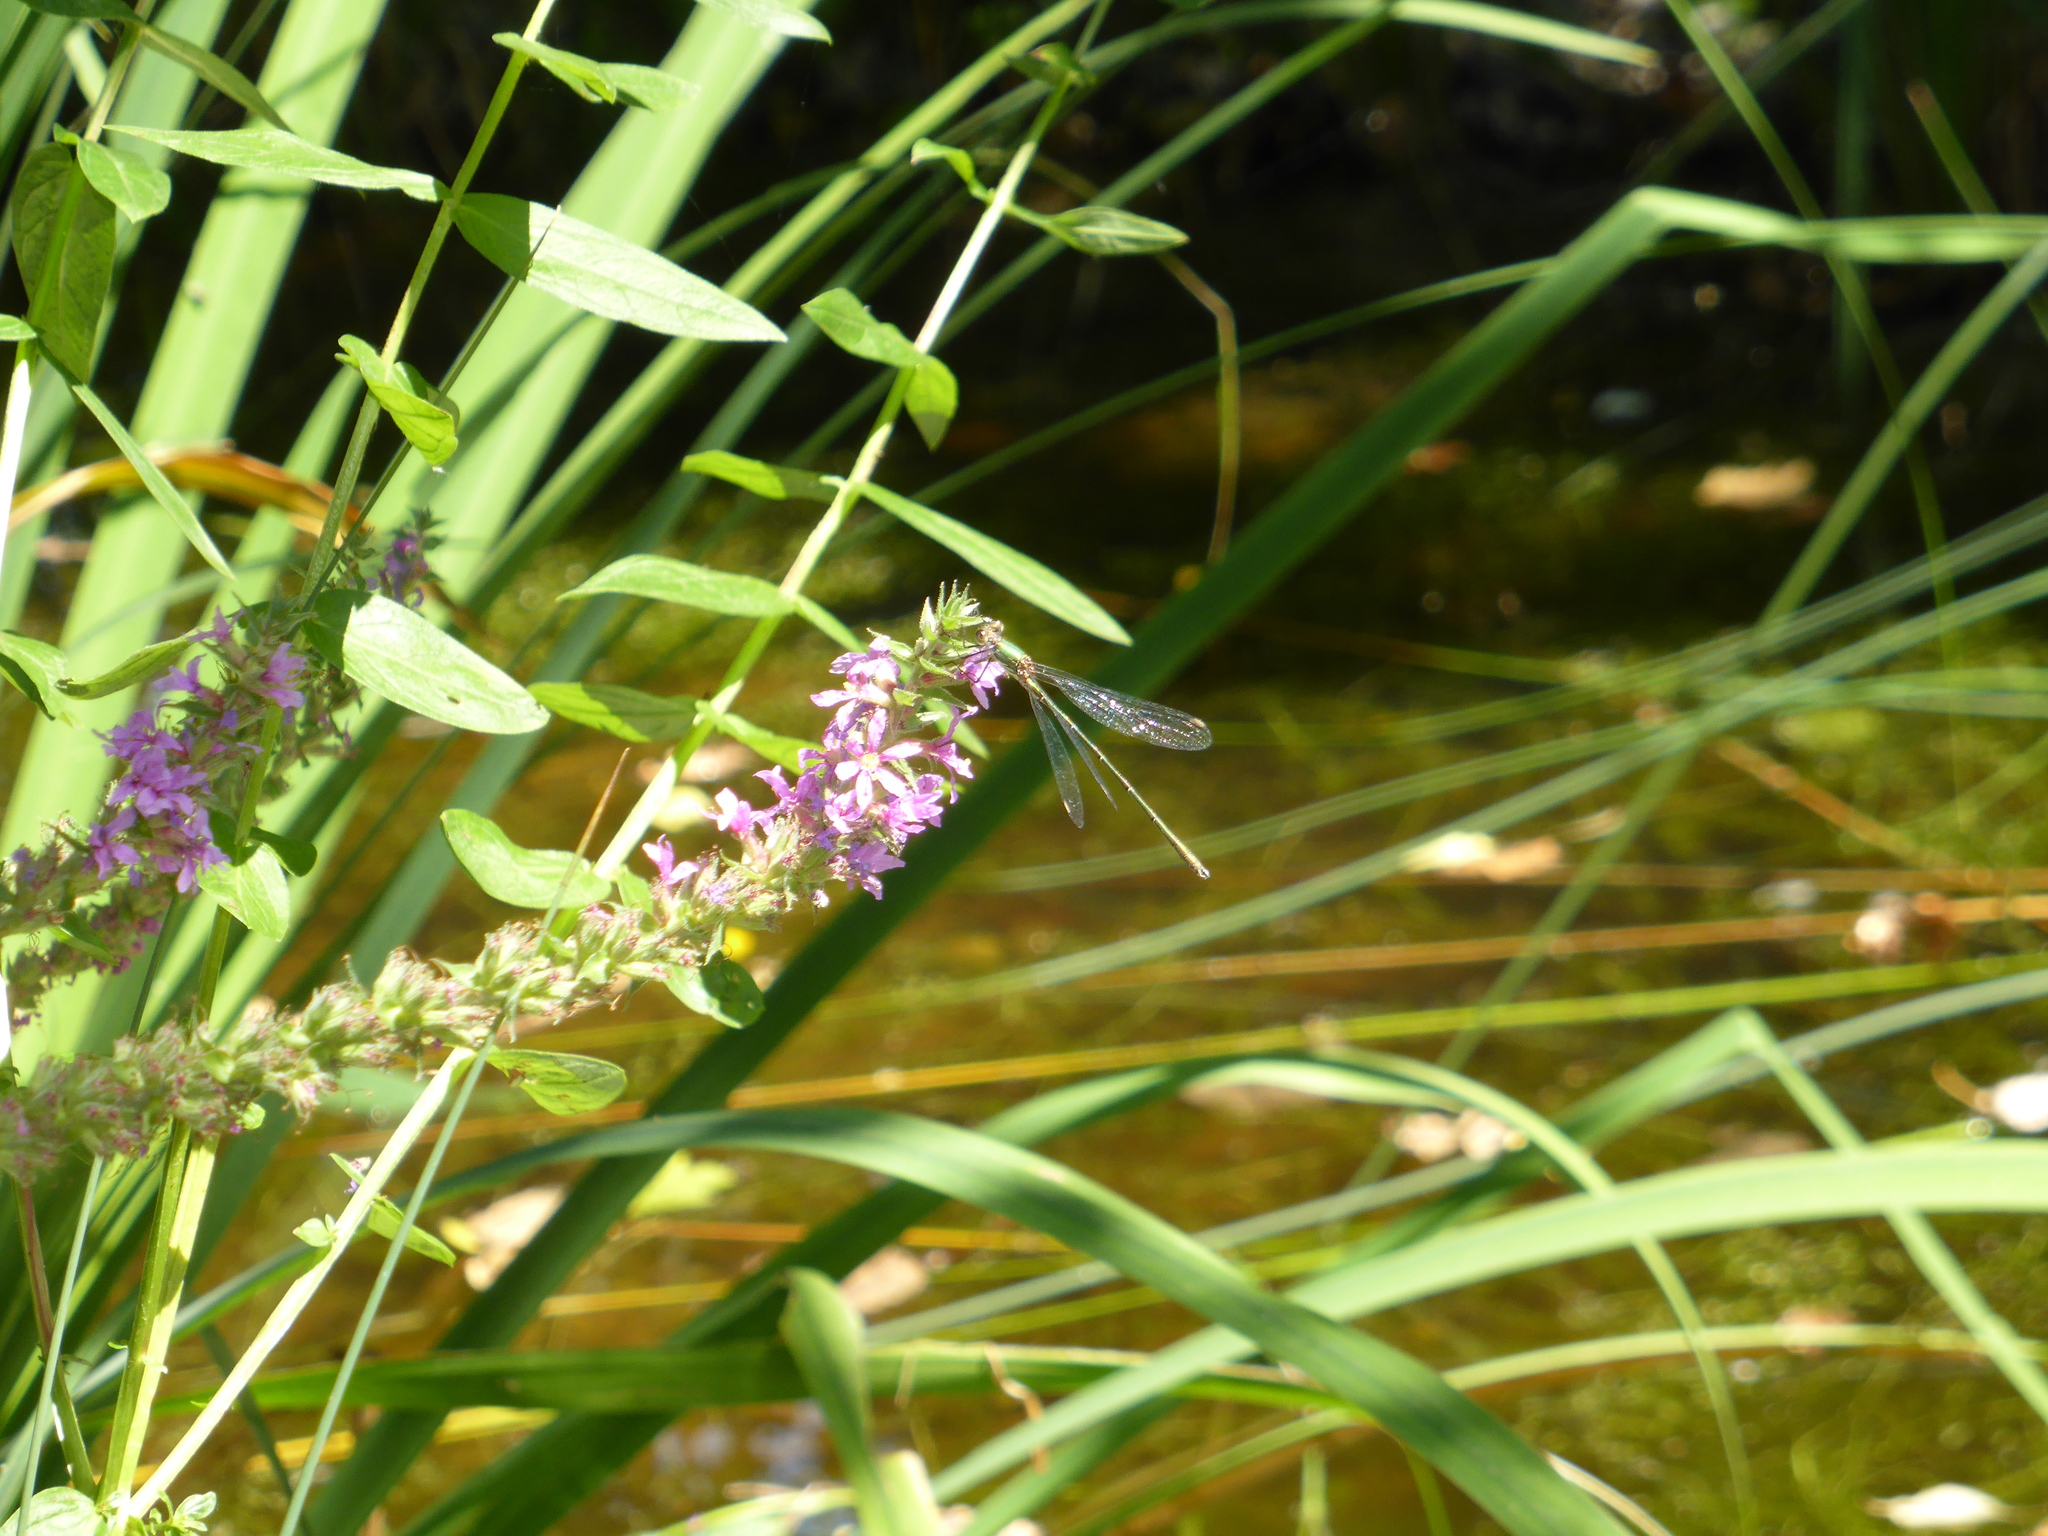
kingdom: Animalia
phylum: Arthropoda
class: Insecta
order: Odonata
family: Lestidae
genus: Chalcolestes
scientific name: Chalcolestes viridis
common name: Green emerald damselfly
